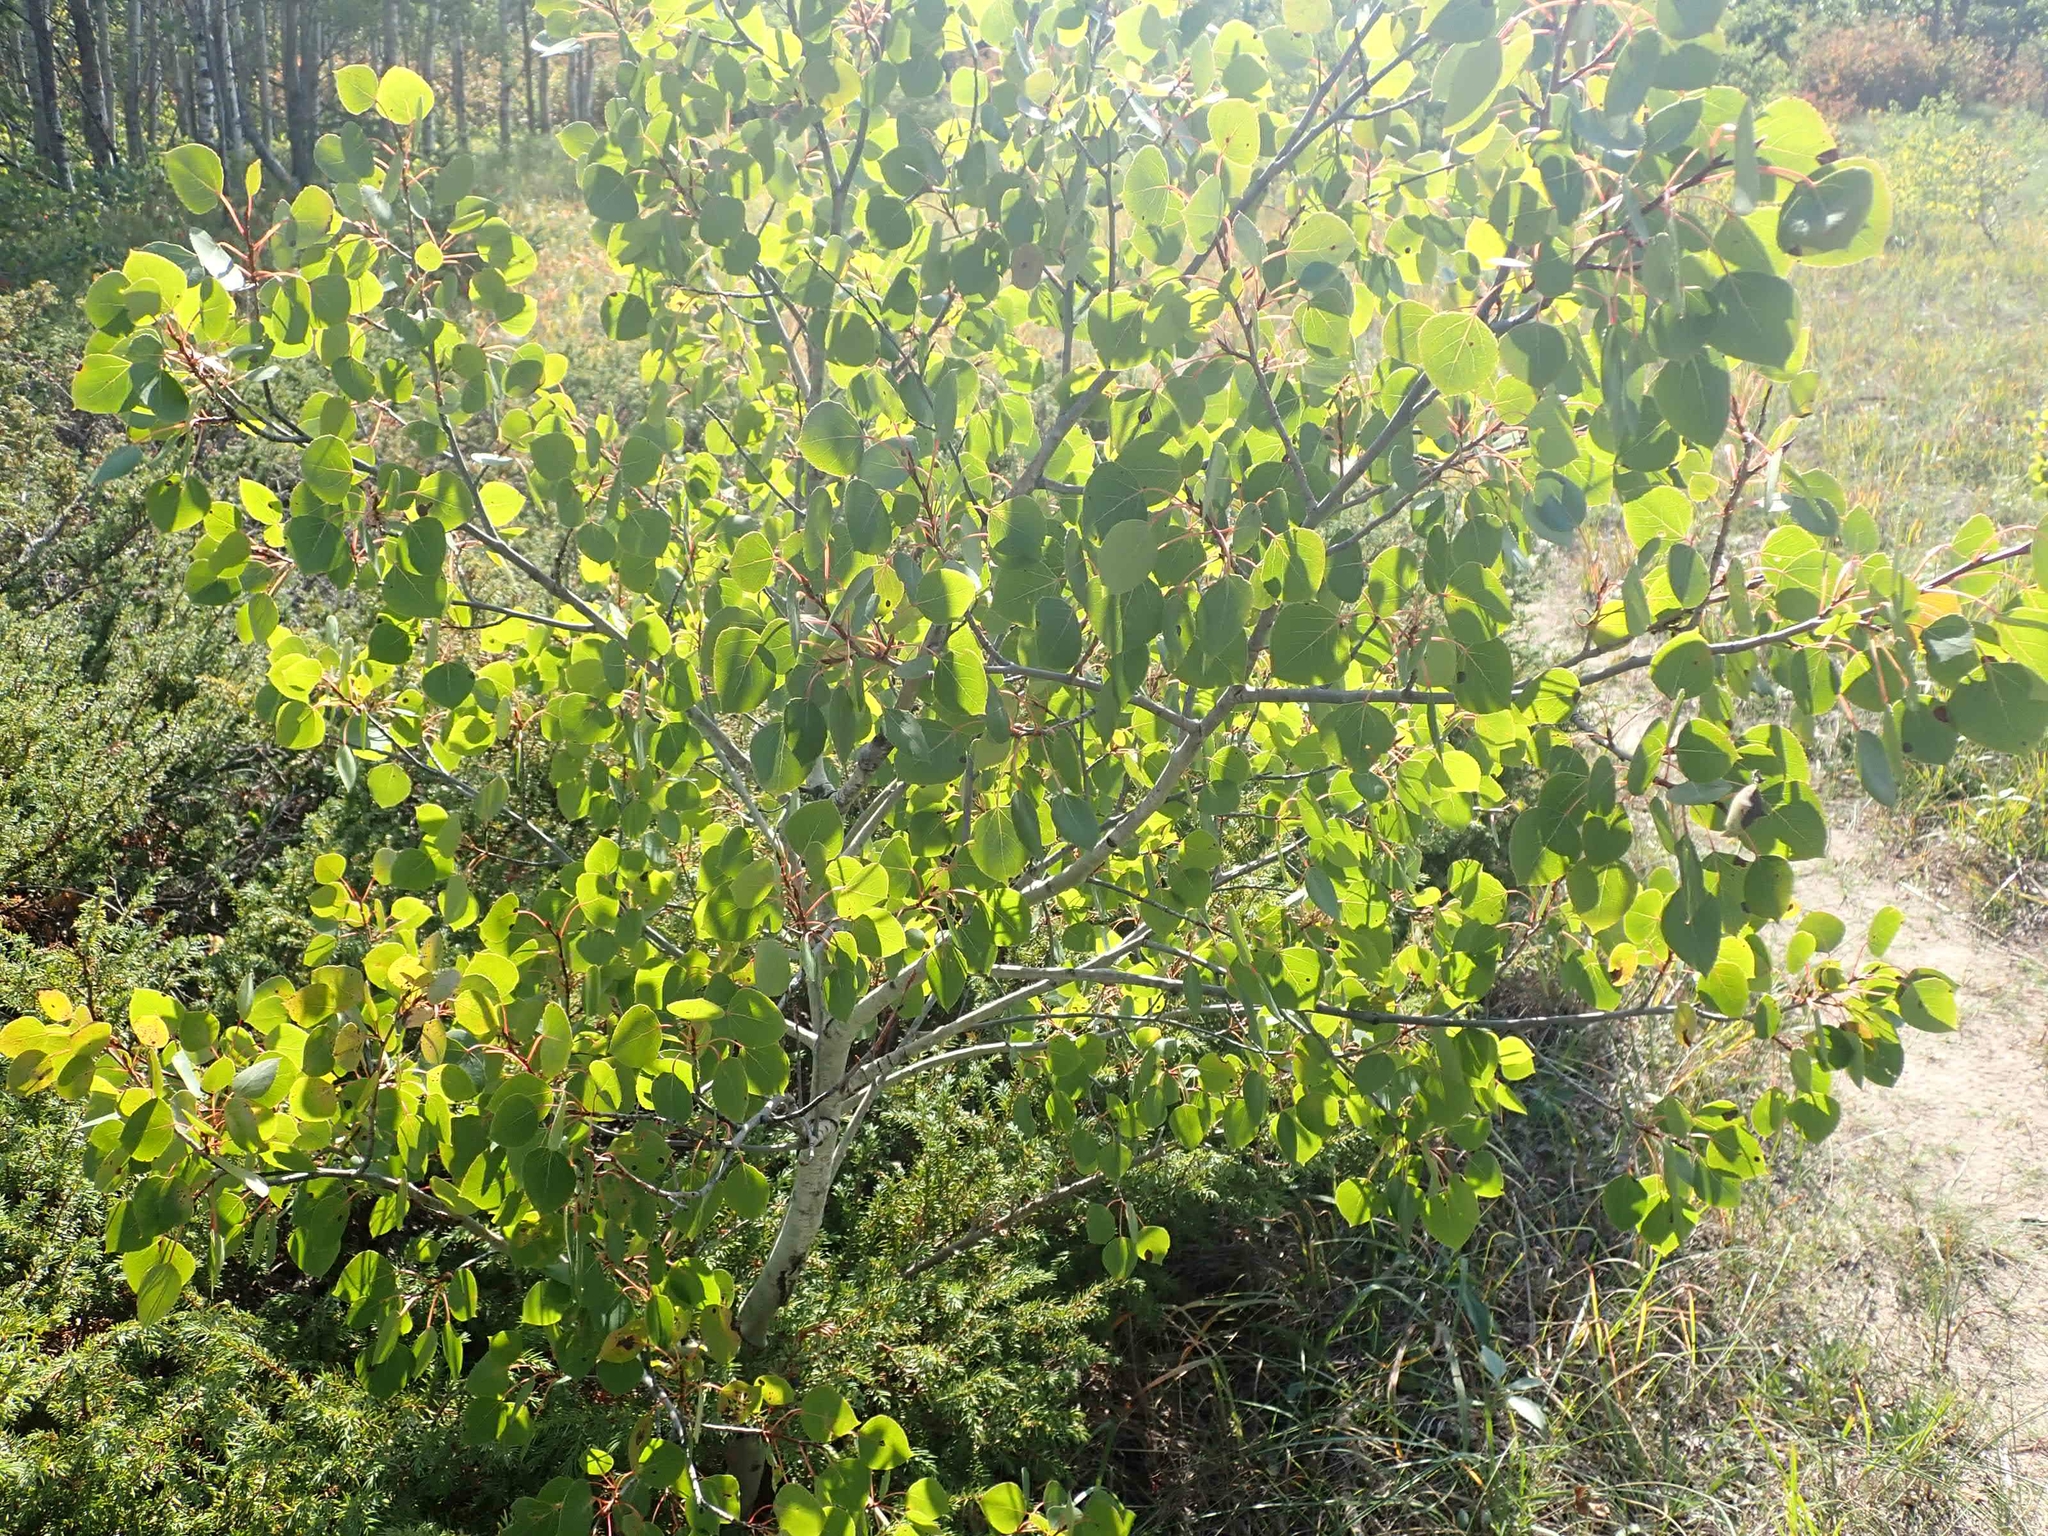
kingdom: Plantae
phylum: Tracheophyta
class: Magnoliopsida
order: Malpighiales
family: Salicaceae
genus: Populus
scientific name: Populus tremuloides
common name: Quaking aspen
